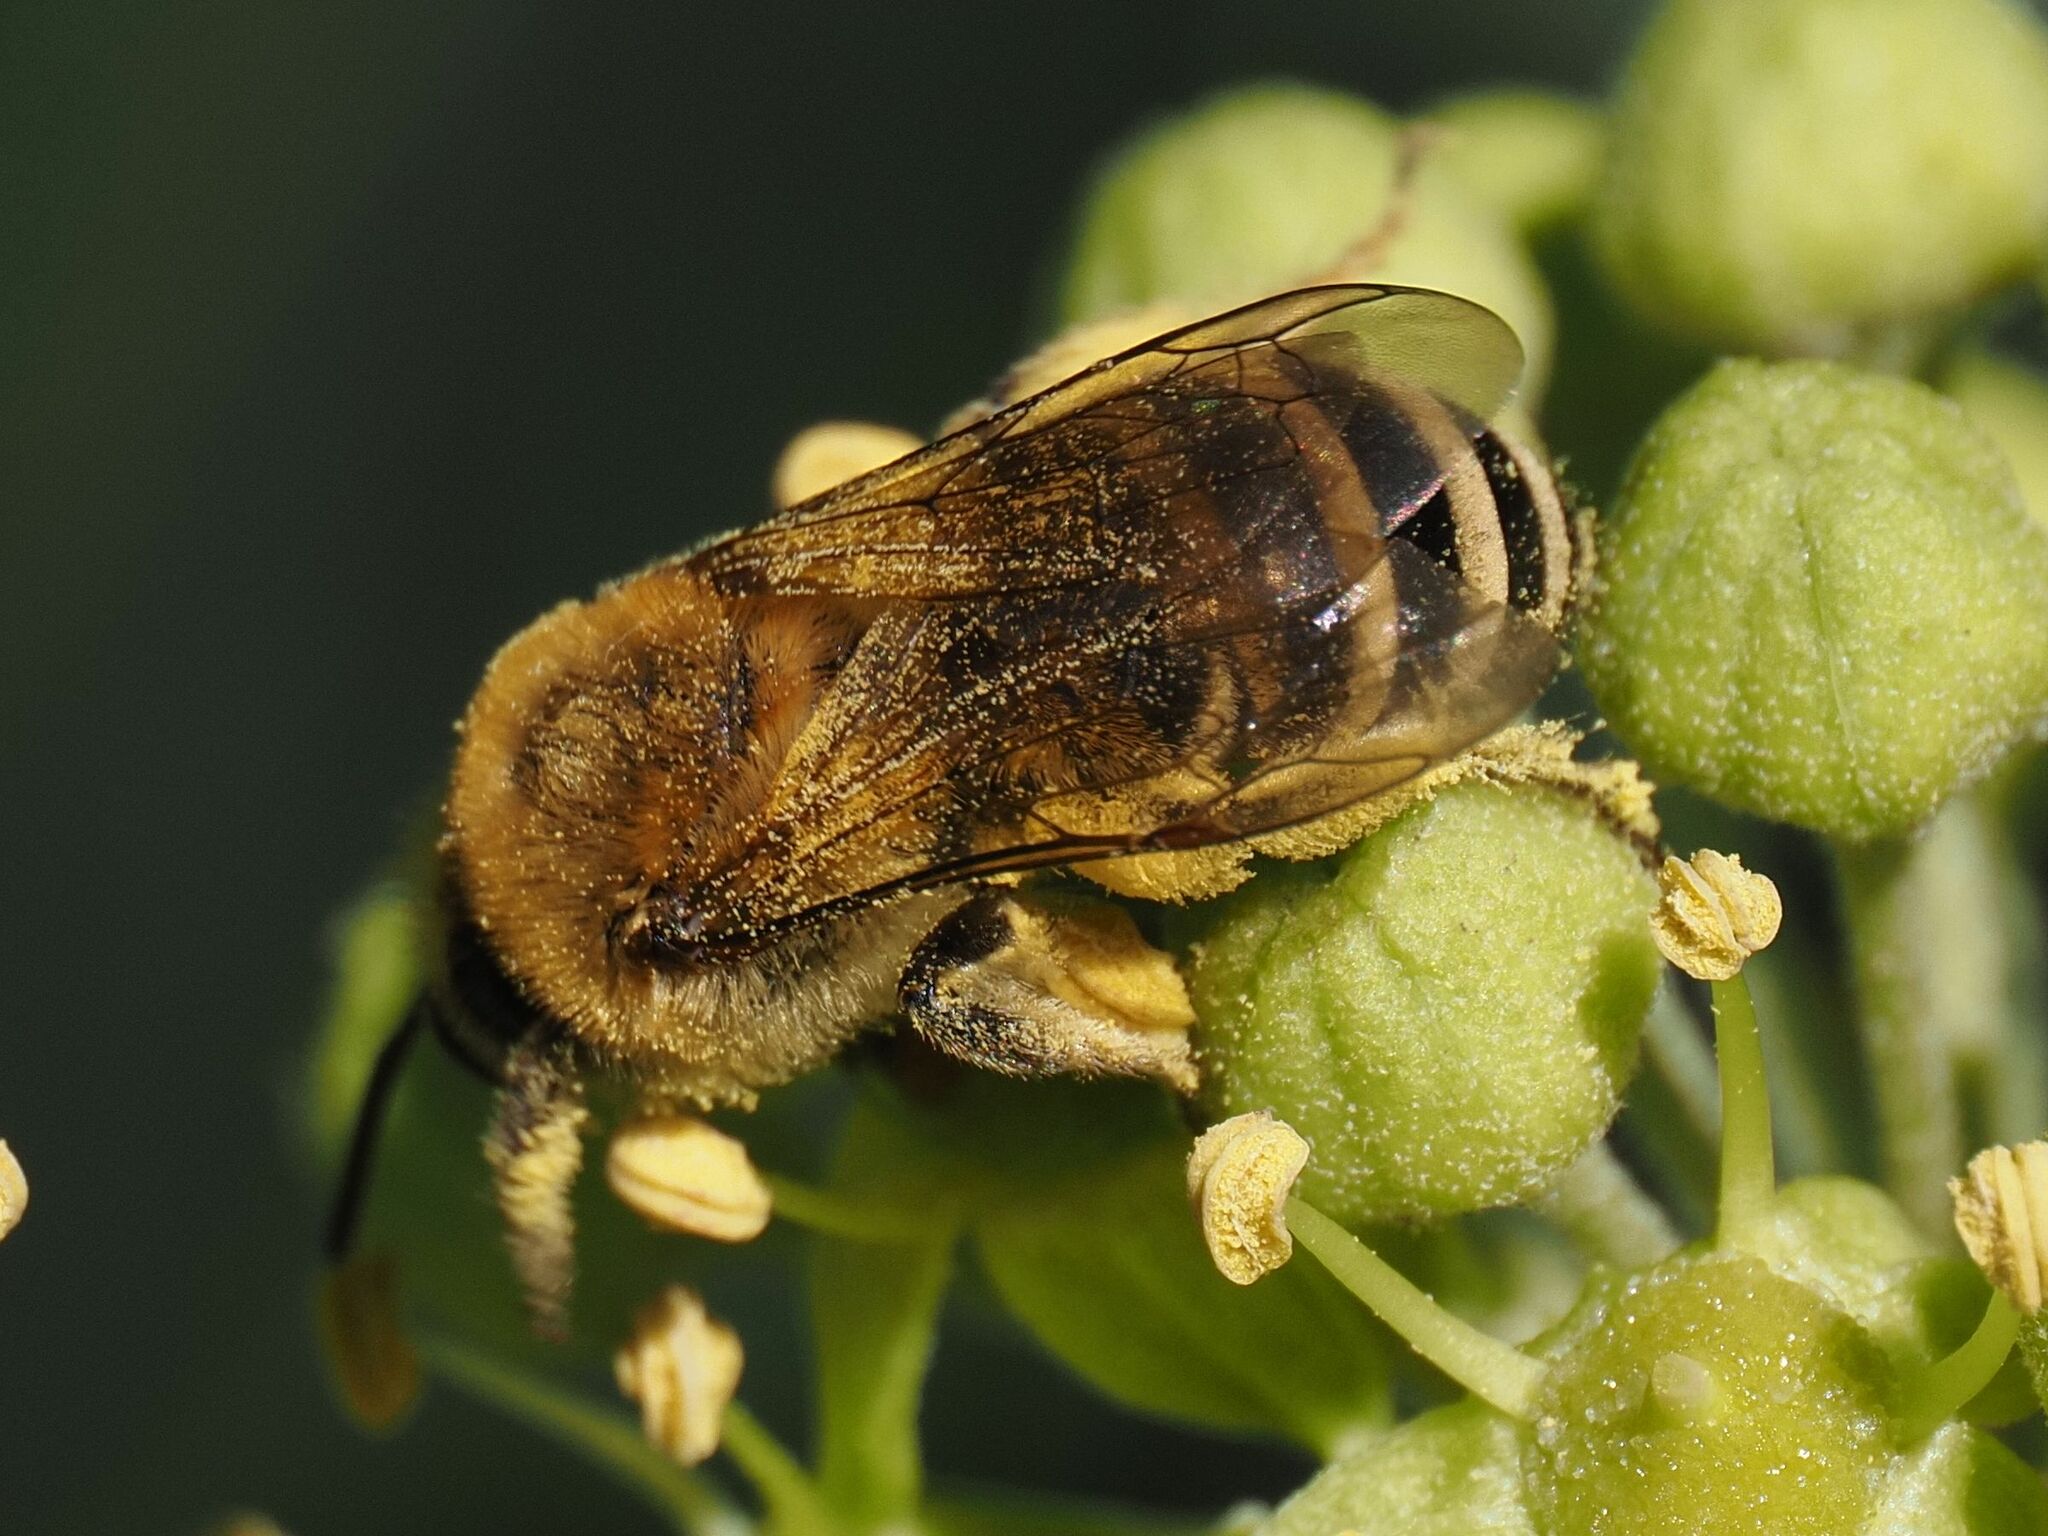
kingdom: Animalia
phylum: Arthropoda
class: Insecta
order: Hymenoptera
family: Colletidae
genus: Colletes
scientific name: Colletes hederae
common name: Ivy bee
